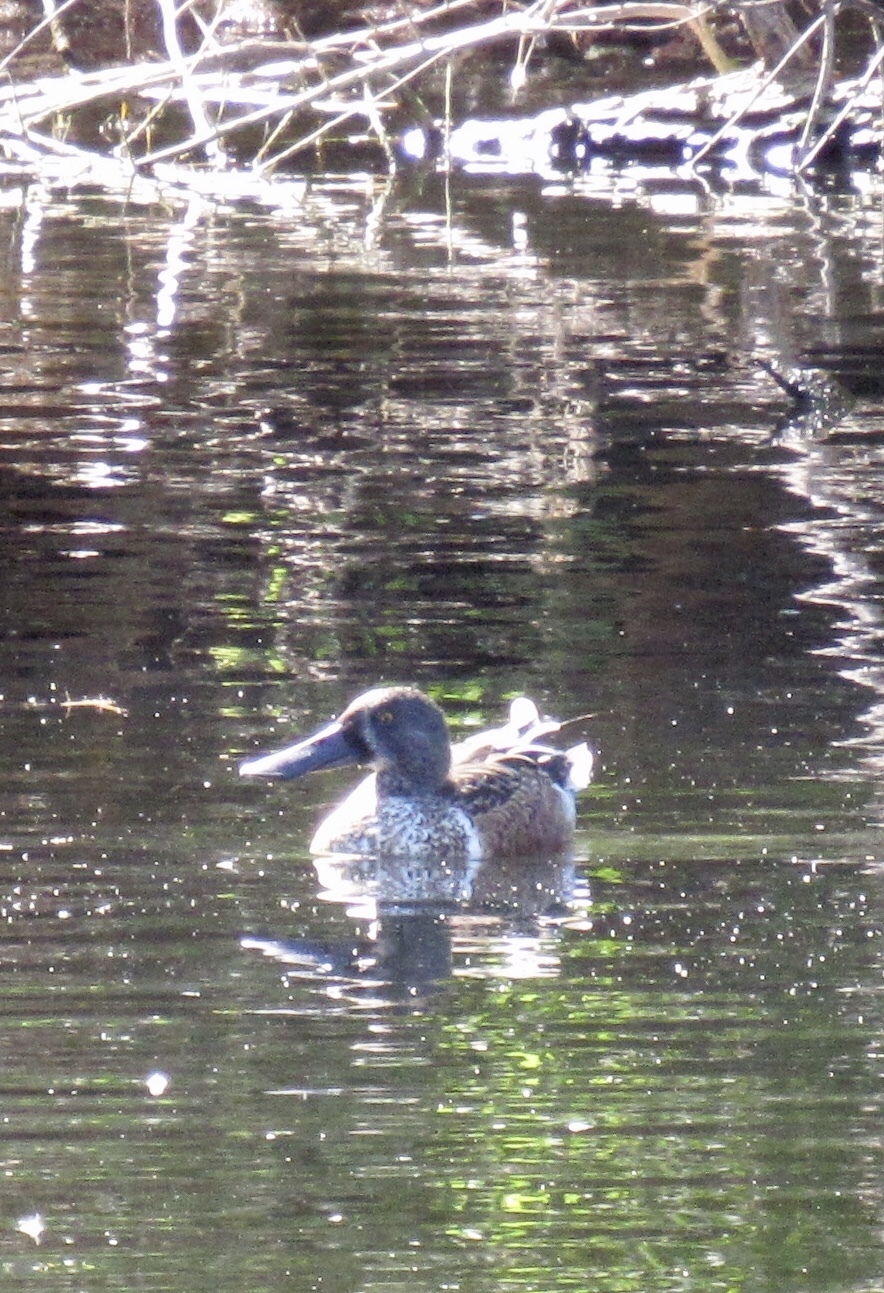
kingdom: Animalia
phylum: Chordata
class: Aves
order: Anseriformes
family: Anatidae
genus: Spatula
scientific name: Spatula clypeata
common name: Northern shoveler
